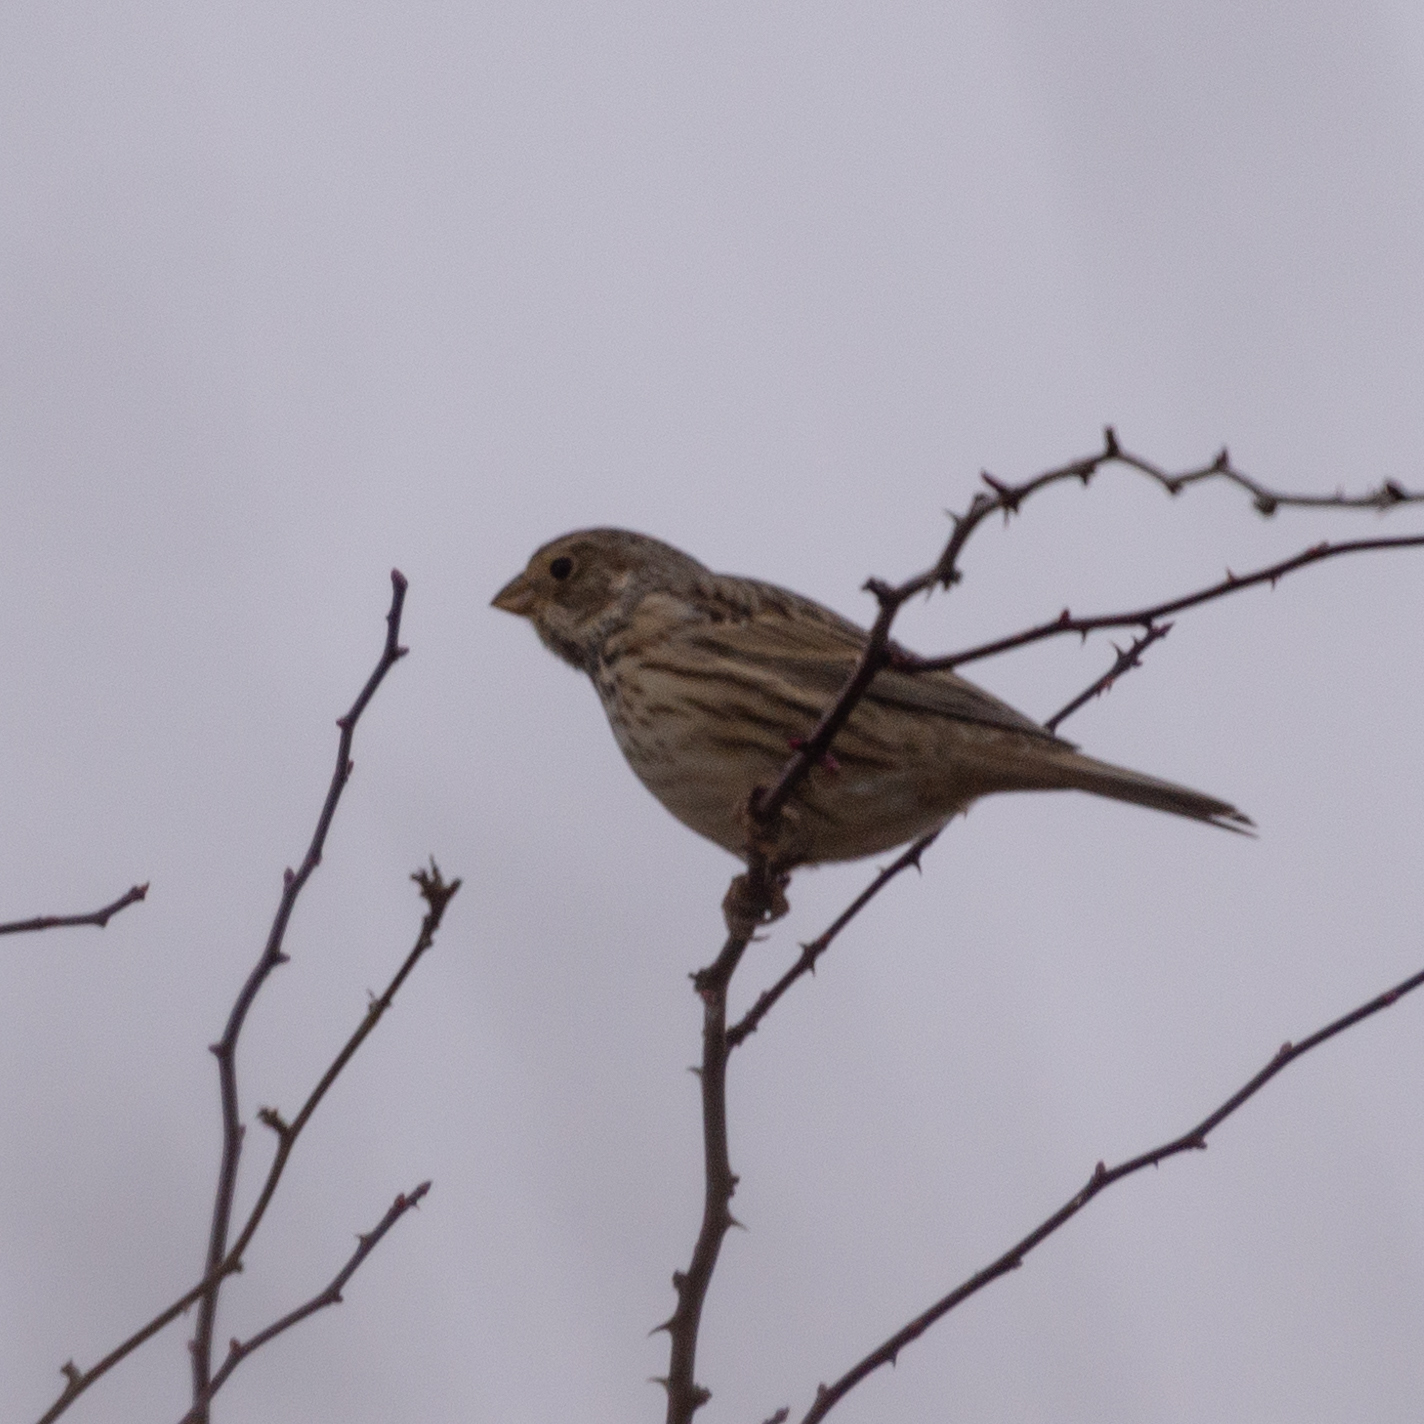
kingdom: Animalia
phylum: Chordata
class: Aves
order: Passeriformes
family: Emberizidae
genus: Emberiza
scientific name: Emberiza calandra
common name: Corn bunting
